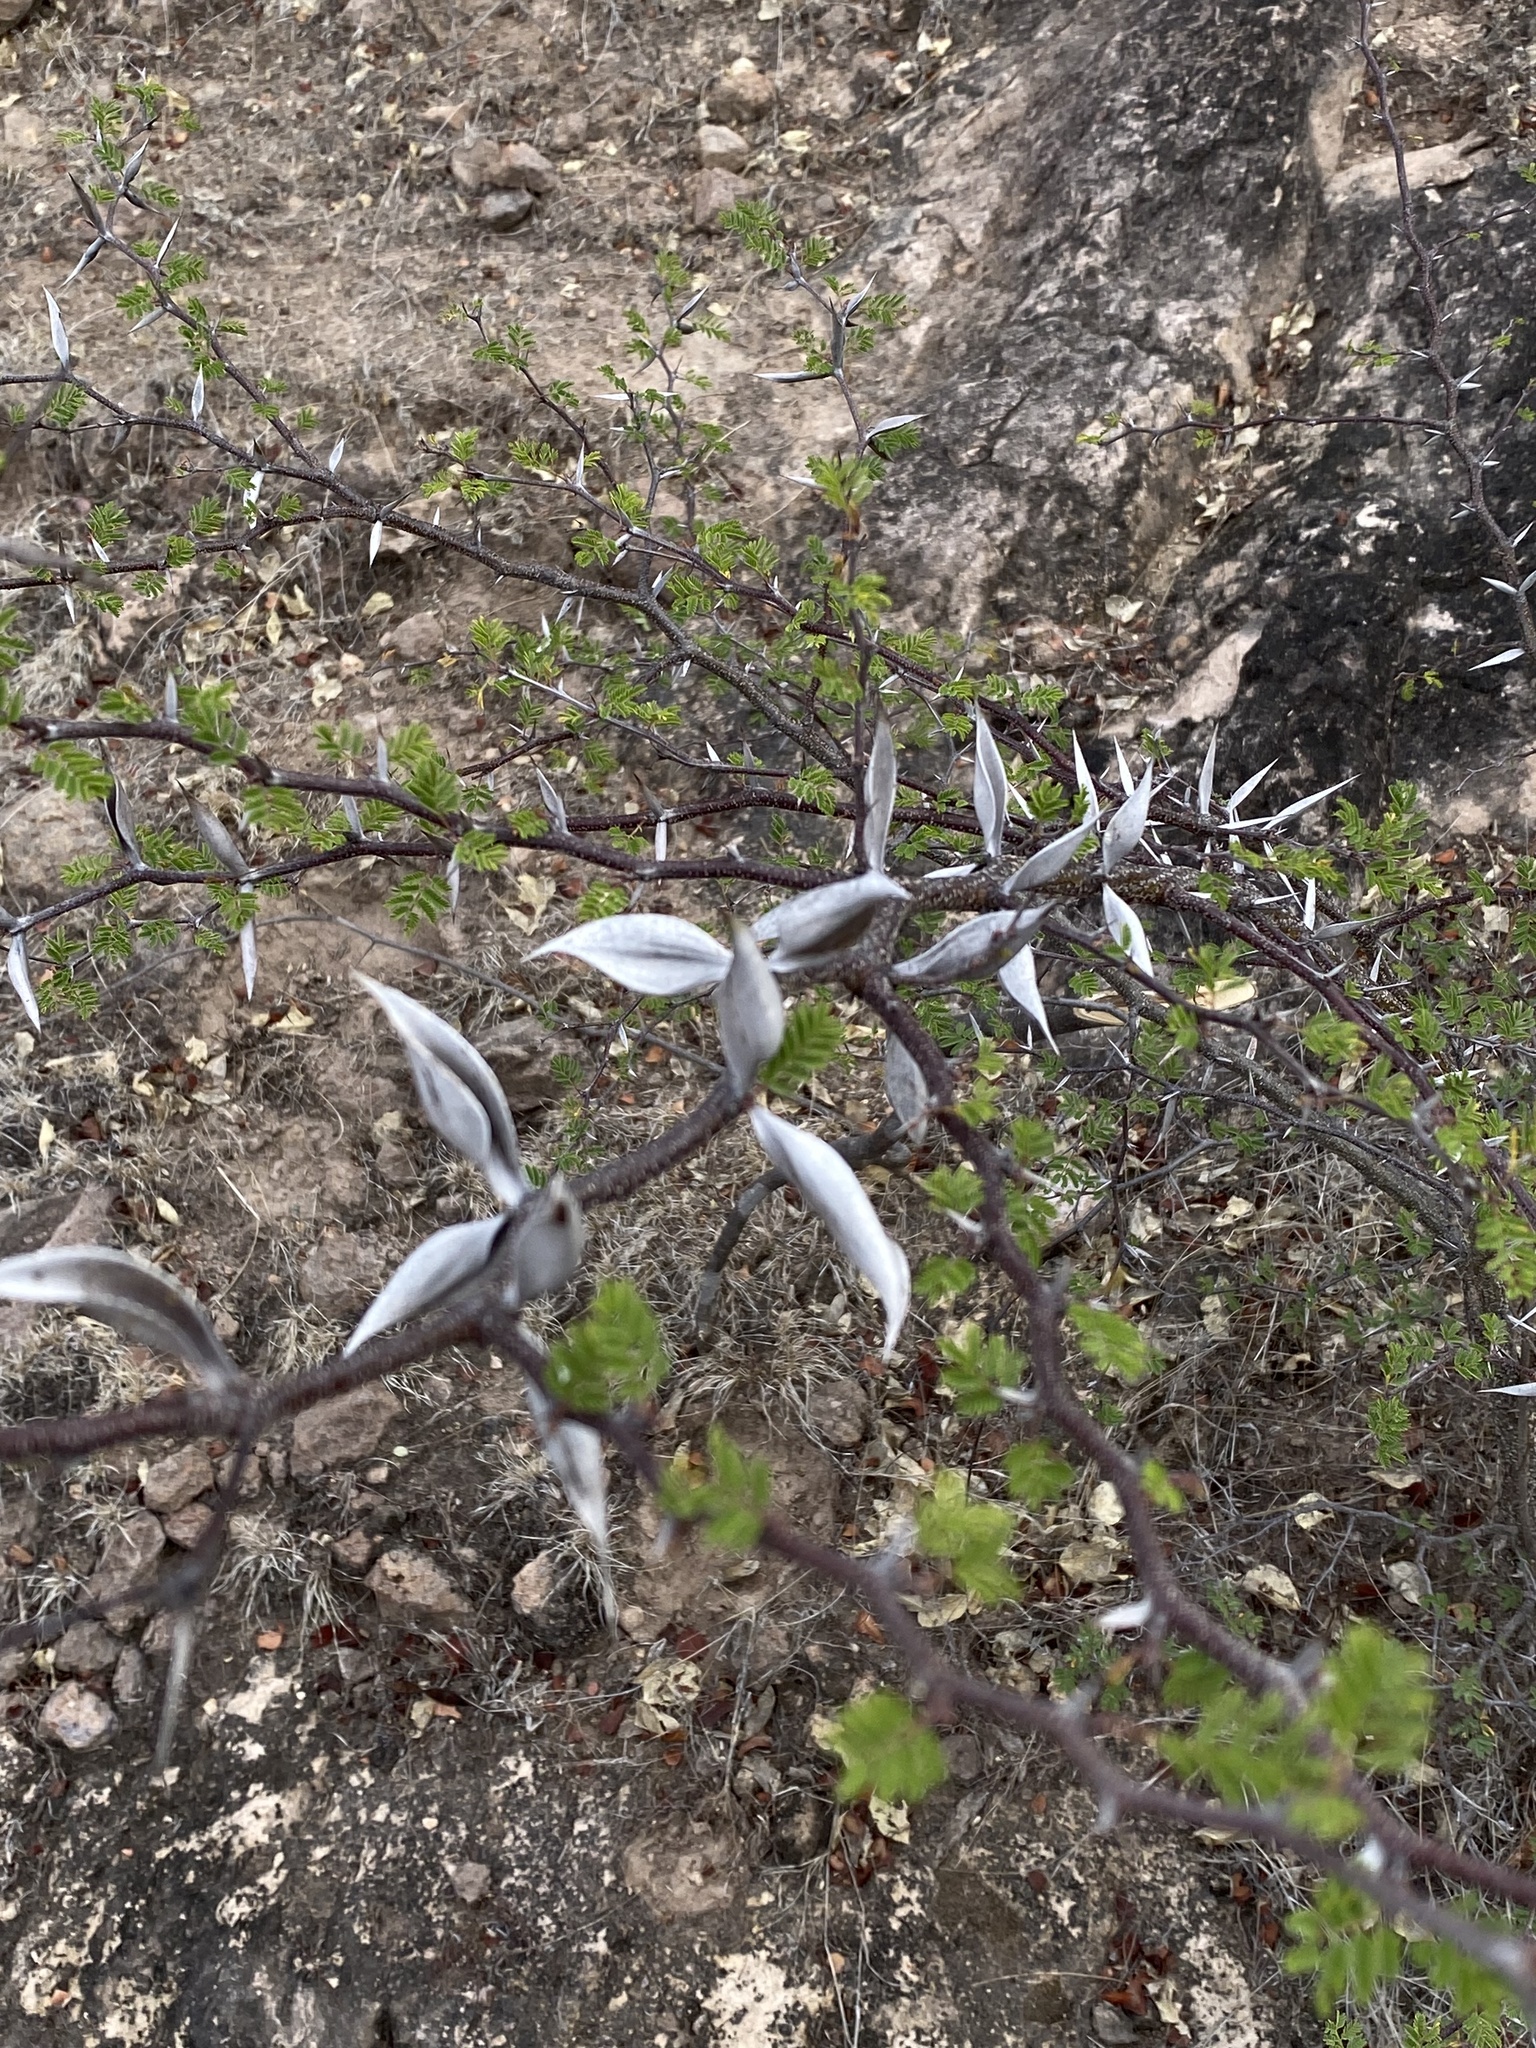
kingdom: Plantae
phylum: Tracheophyta
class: Magnoliopsida
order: Fabales
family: Fabaceae
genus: Vachellia
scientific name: Vachellia campechiana
